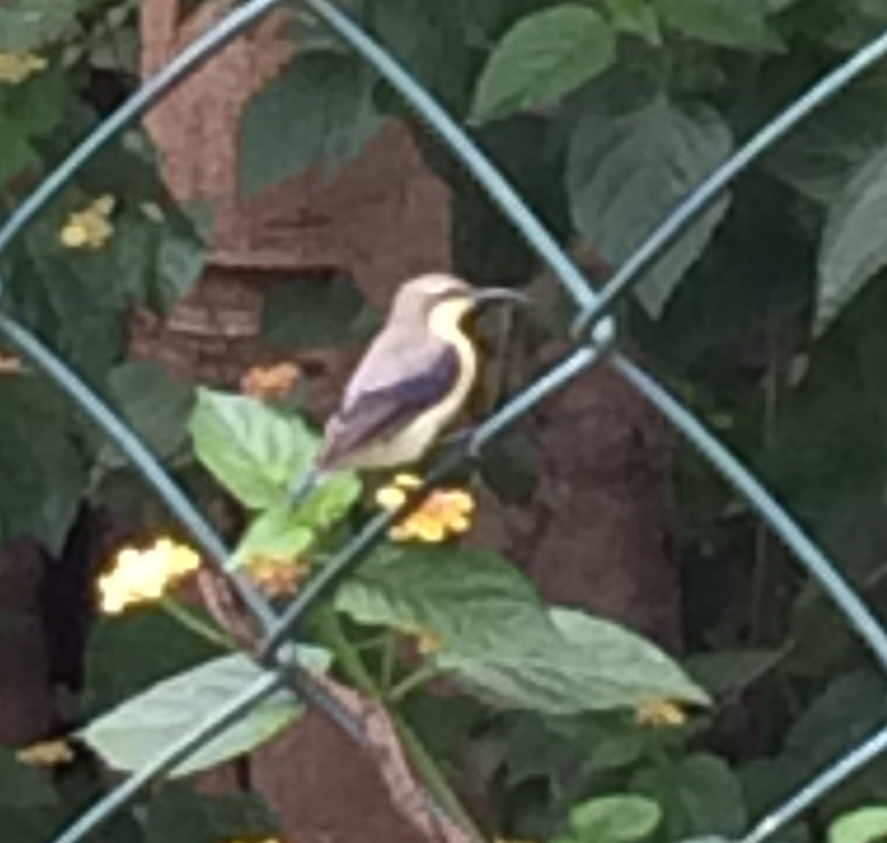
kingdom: Animalia
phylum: Chordata
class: Aves
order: Passeriformes
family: Nectariniidae
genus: Cinnyris
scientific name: Cinnyris asiaticus
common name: Purple sunbird
